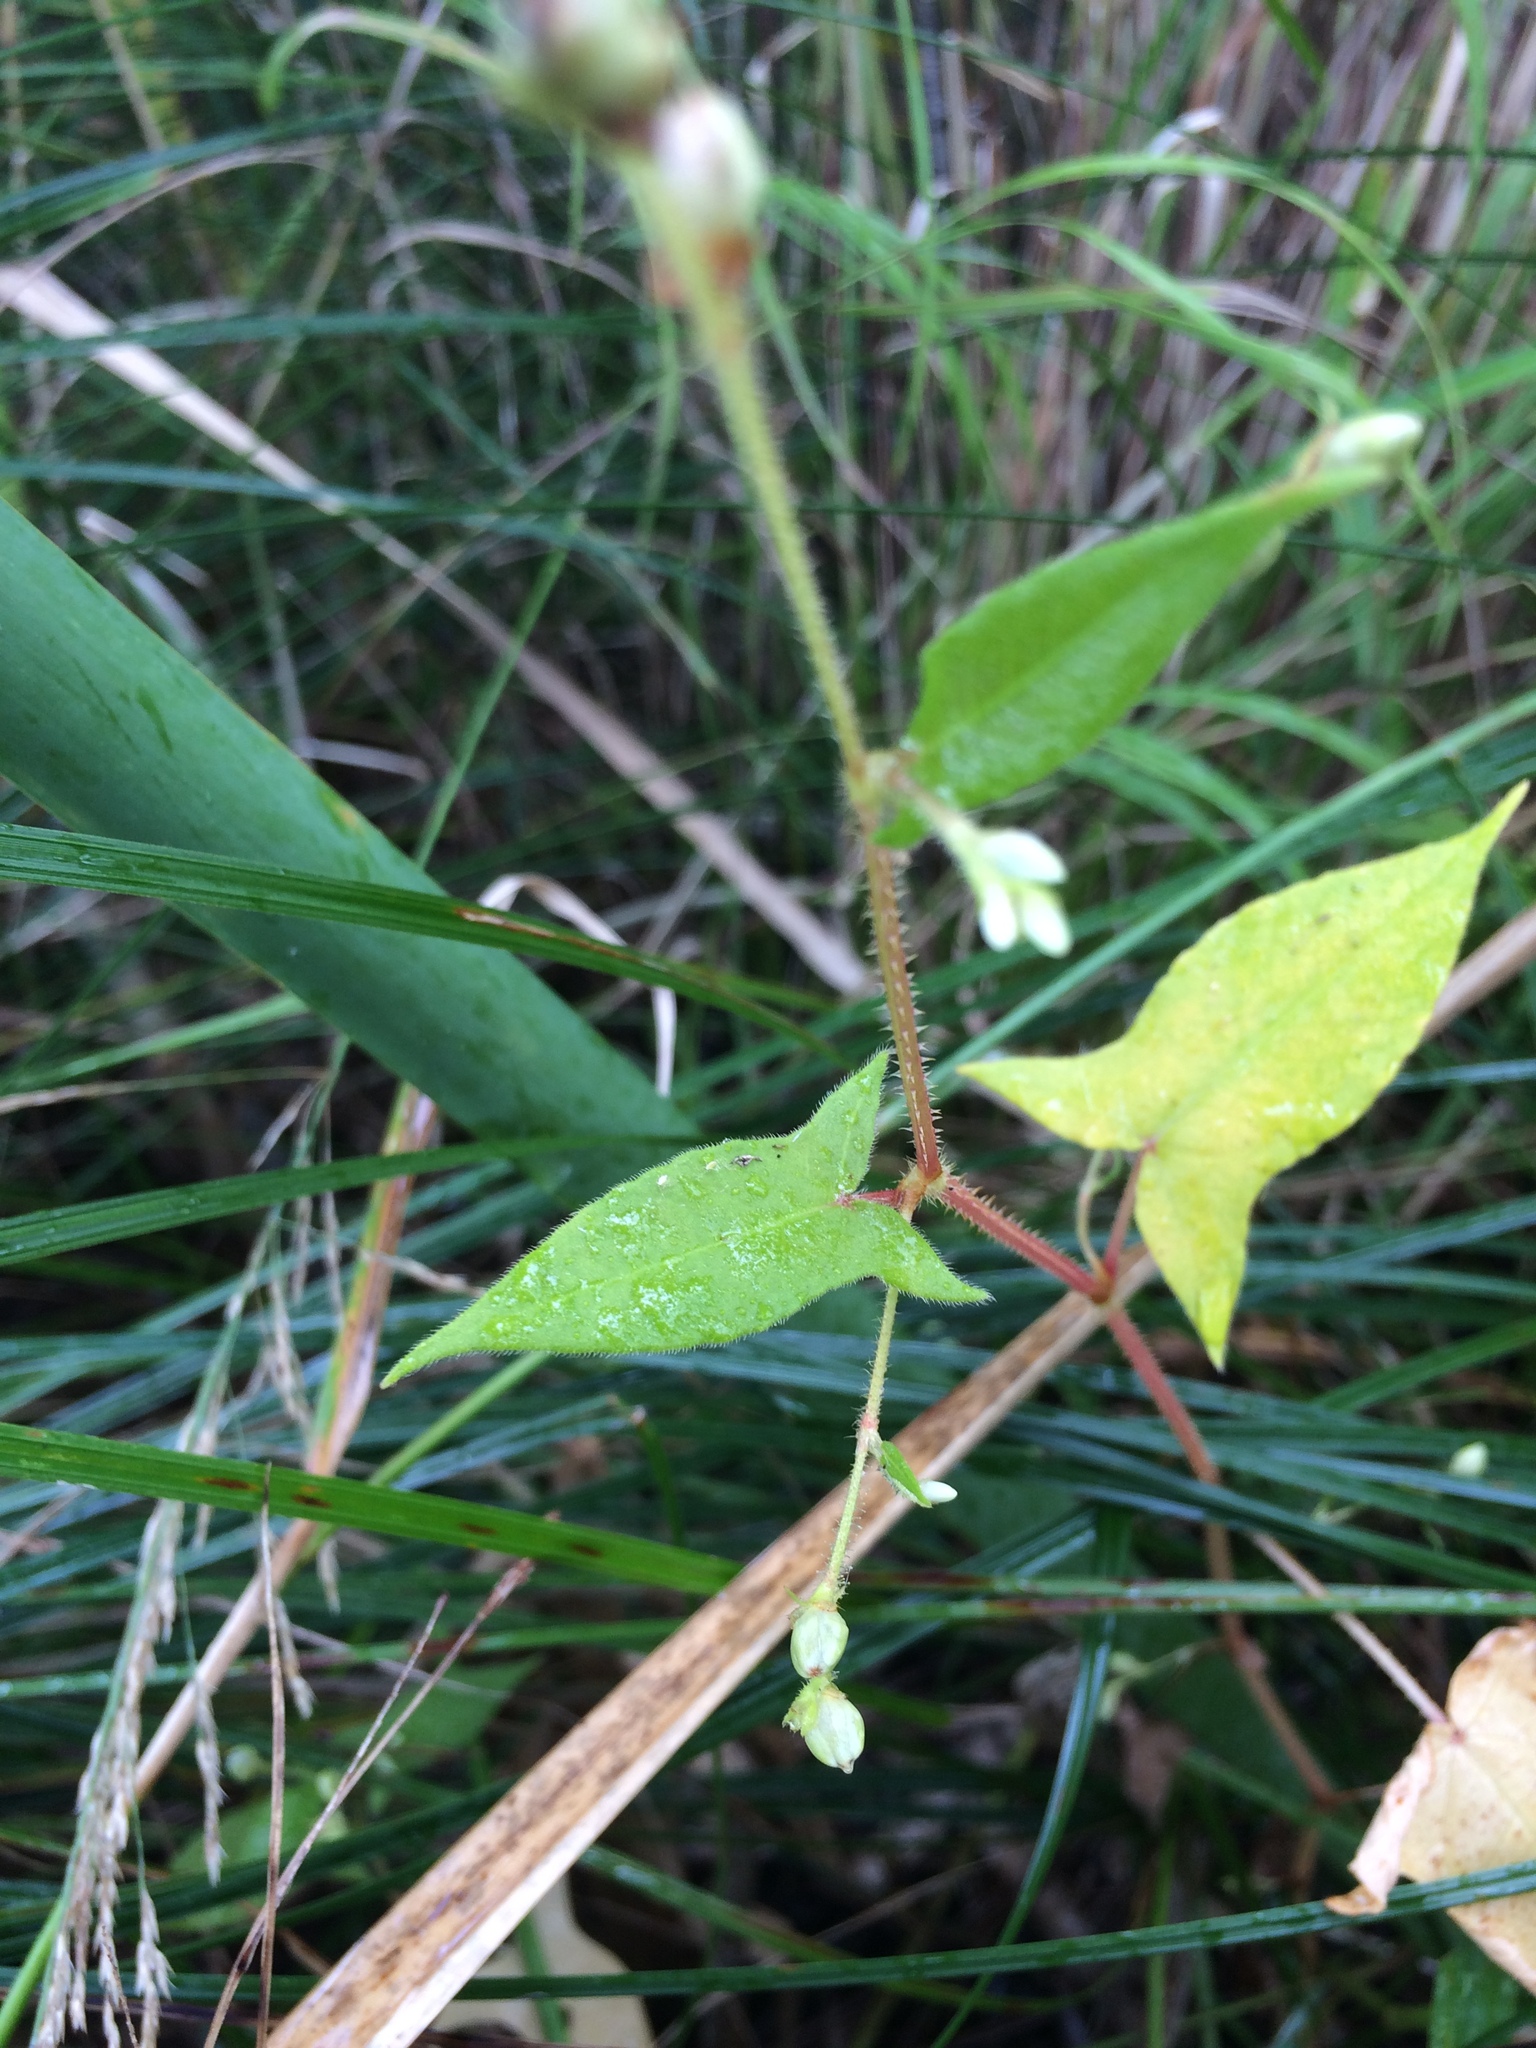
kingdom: Plantae
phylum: Tracheophyta
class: Magnoliopsida
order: Caryophyllales
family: Polygonaceae
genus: Persicaria
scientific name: Persicaria arifolia
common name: Halberd-leaved tear-thumb
